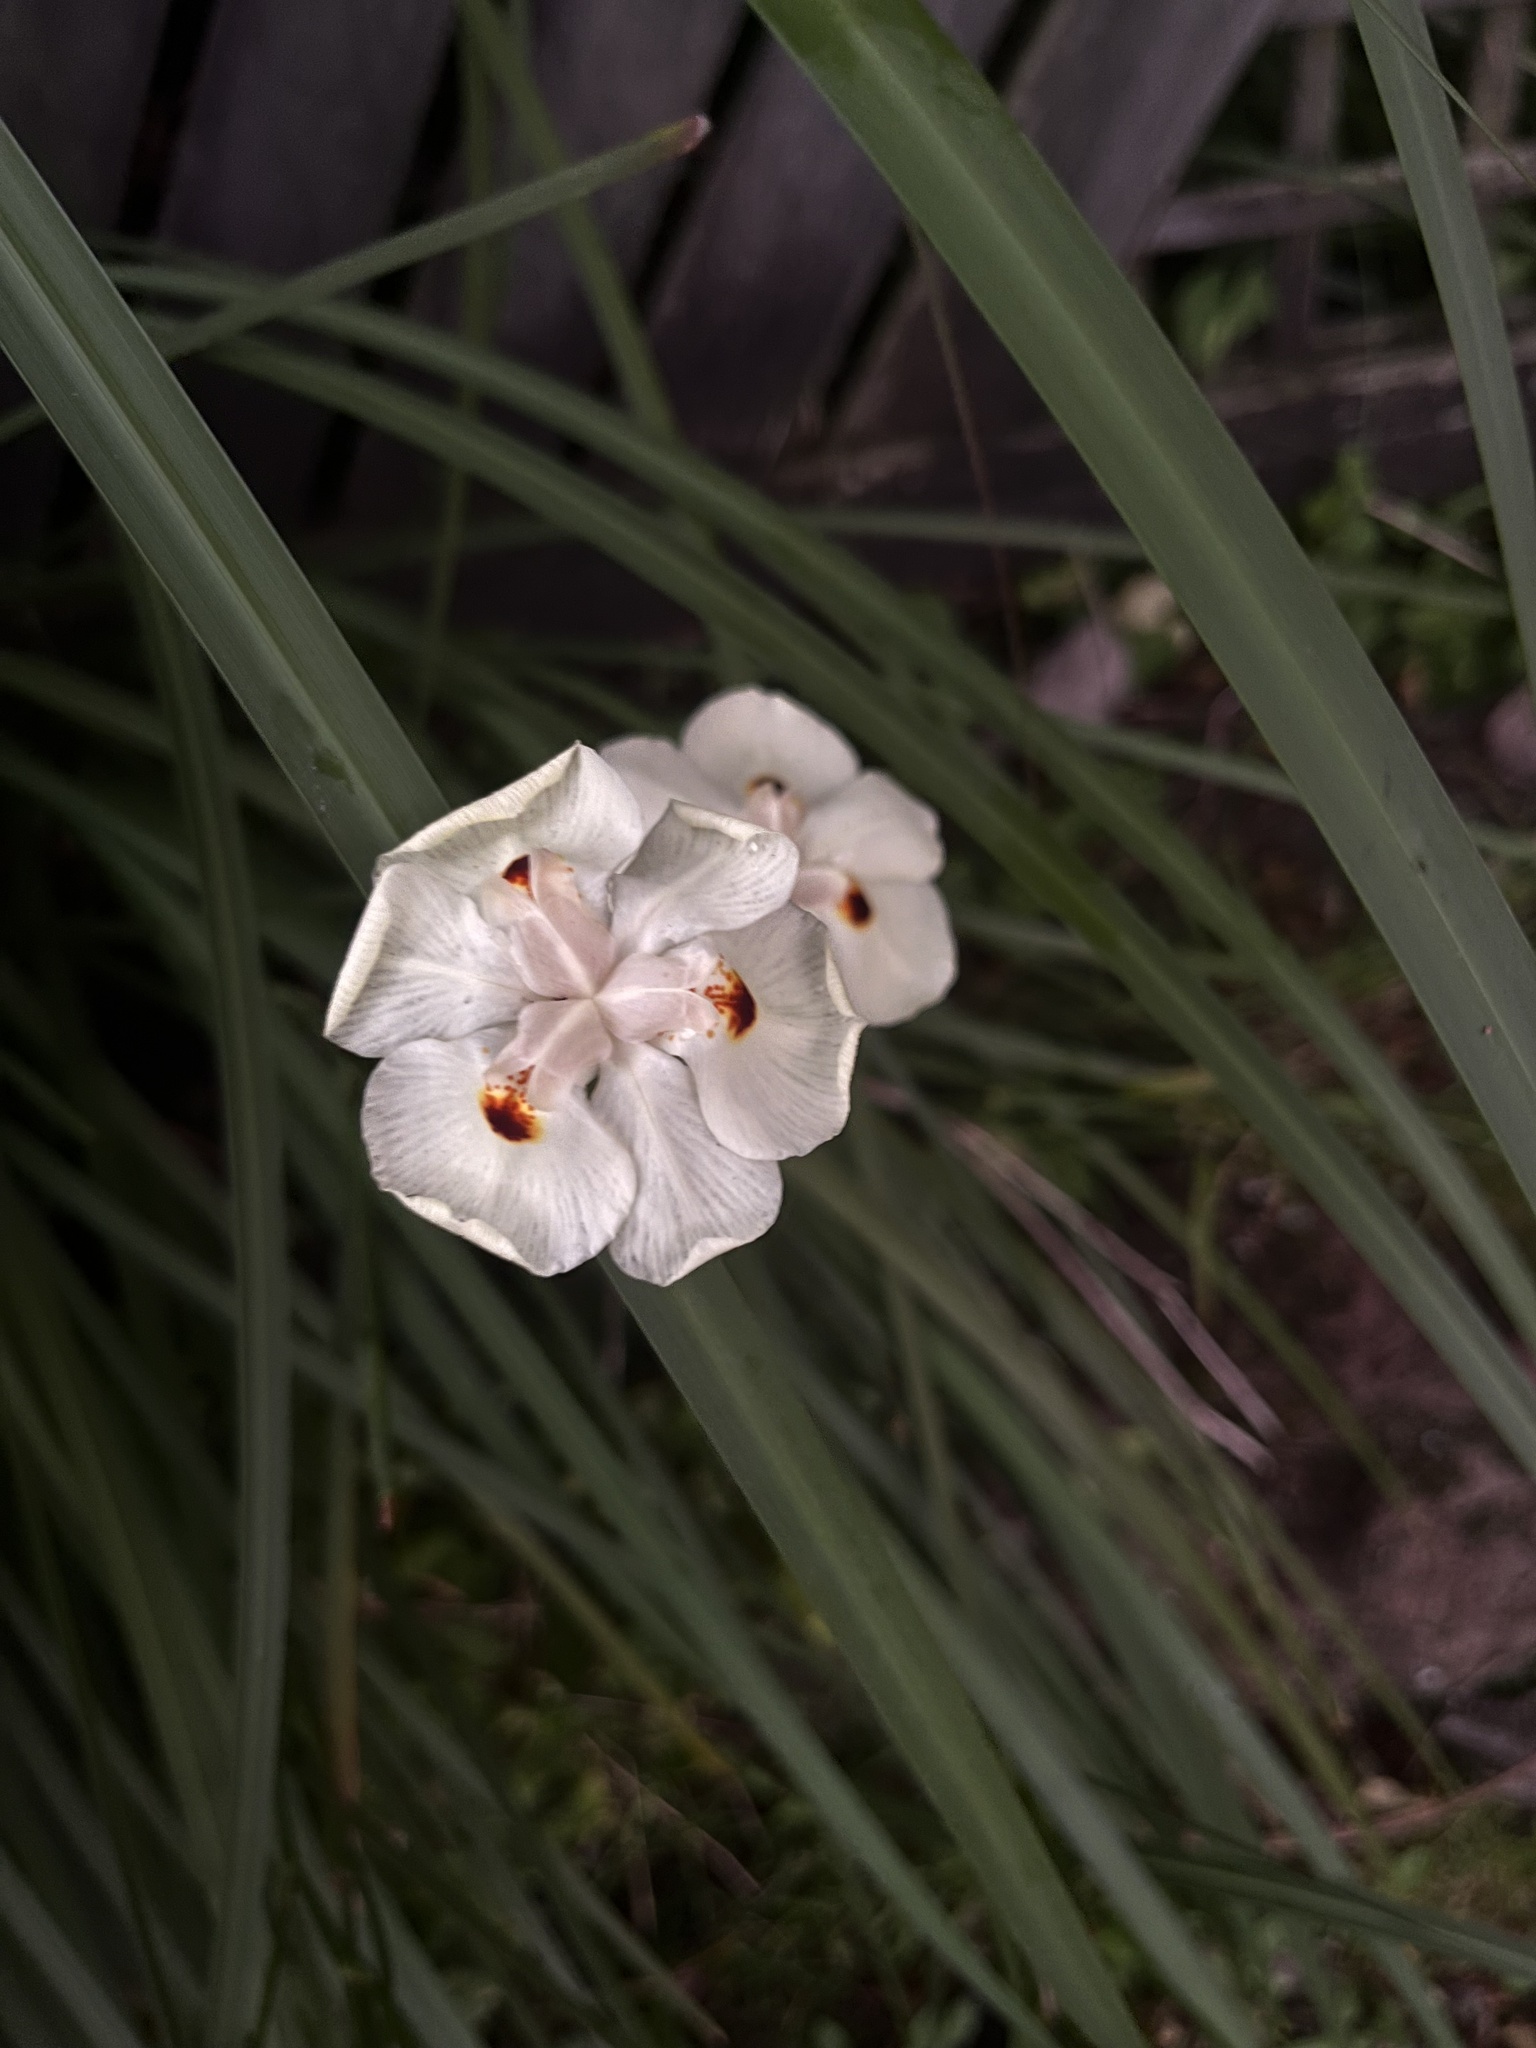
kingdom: Plantae
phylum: Tracheophyta
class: Liliopsida
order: Asparagales
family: Iridaceae
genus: Dietes
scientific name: Dietes bicolor
